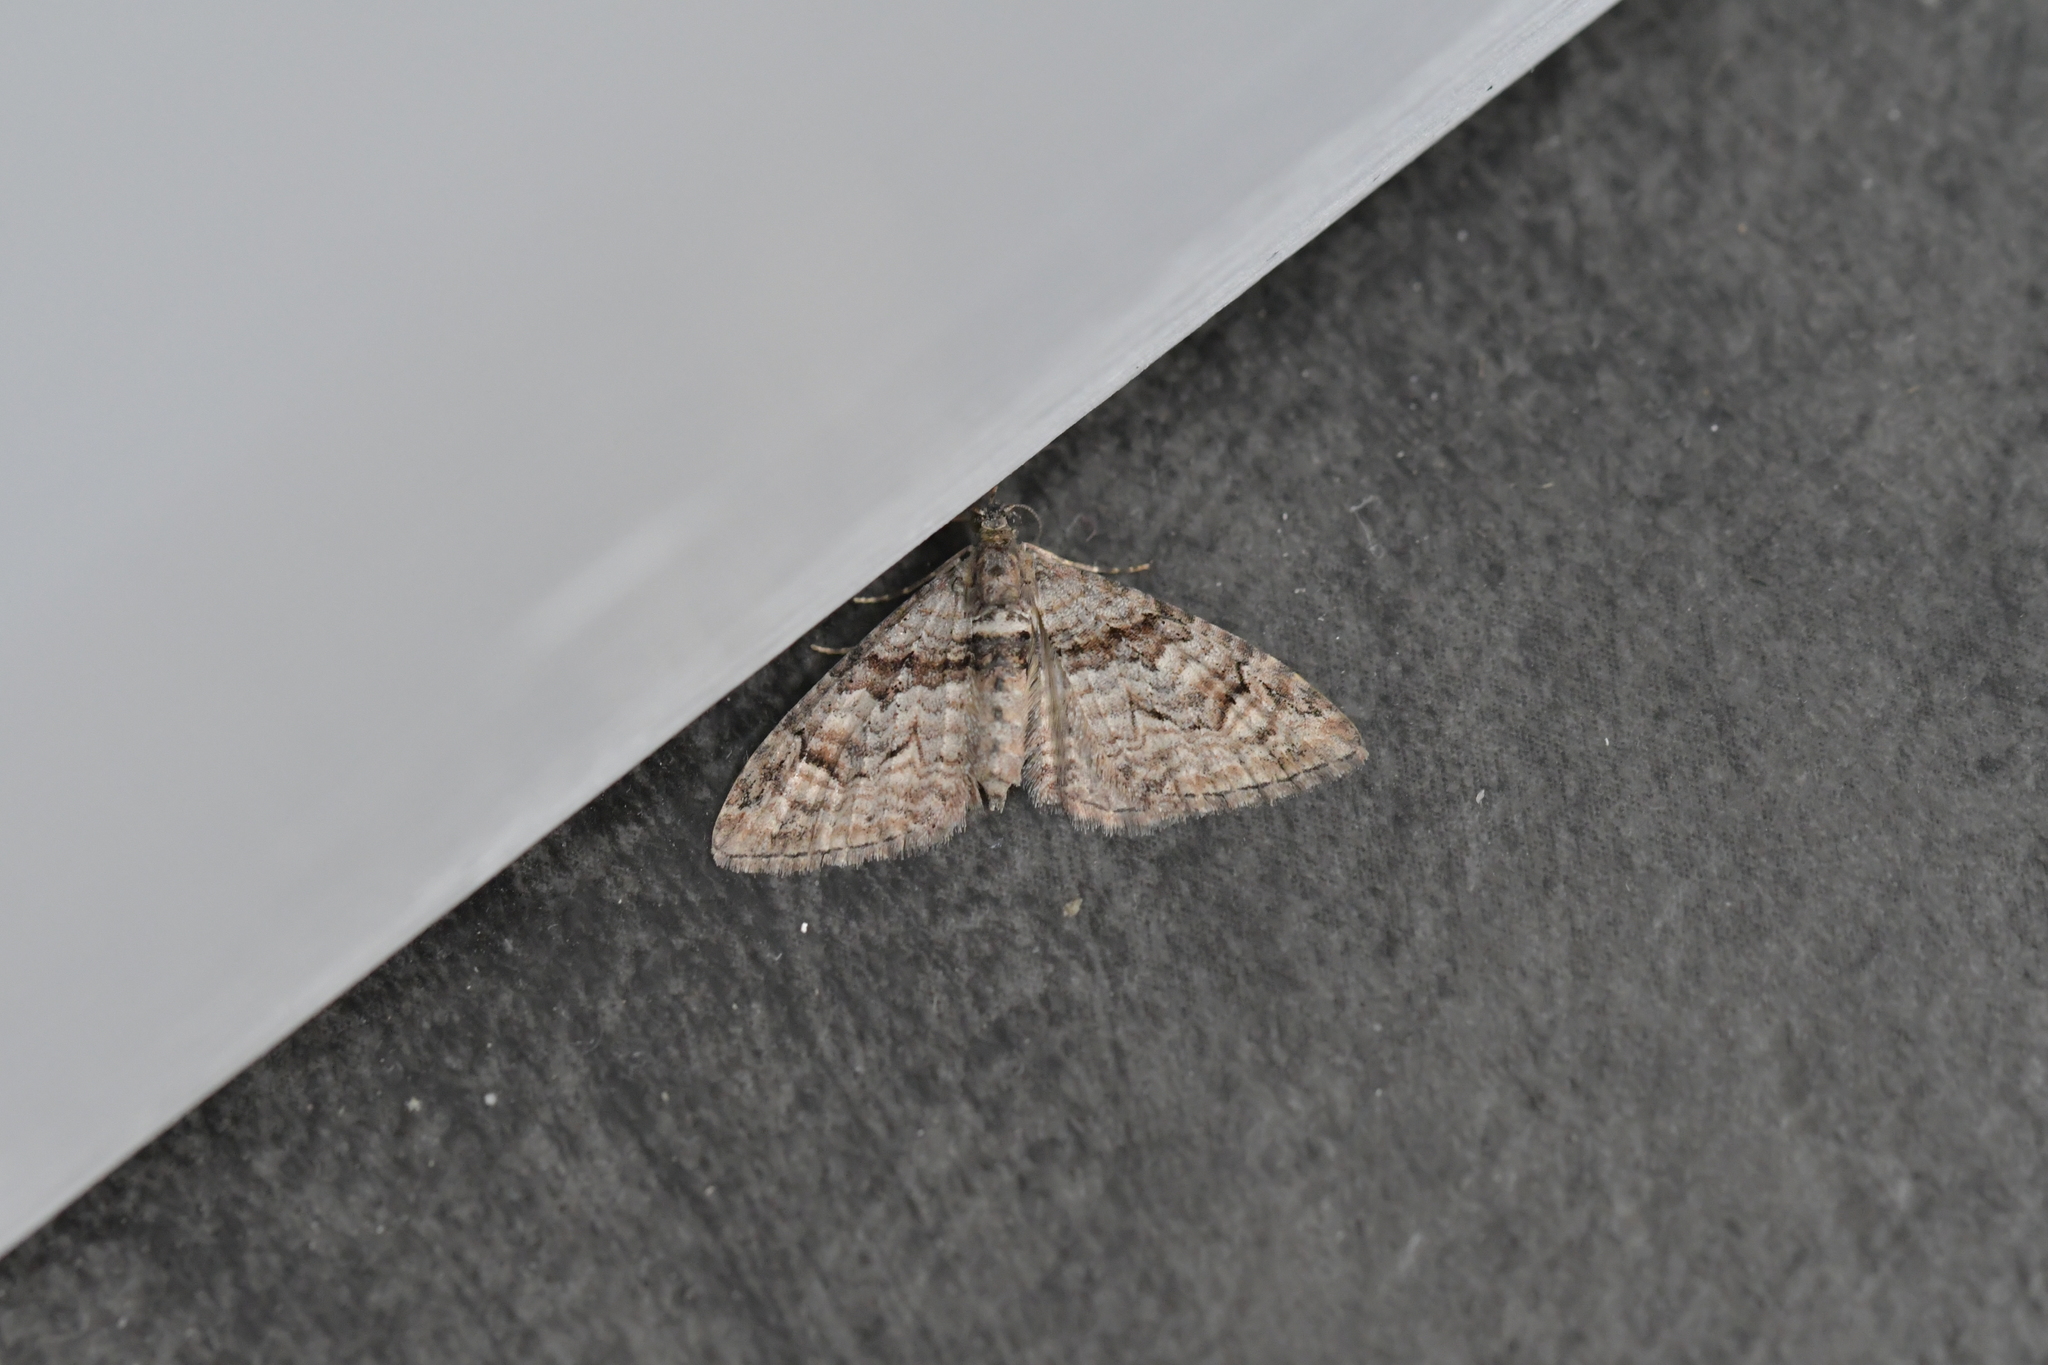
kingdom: Animalia
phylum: Arthropoda
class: Insecta
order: Lepidoptera
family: Geometridae
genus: Phrissogonus
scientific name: Phrissogonus laticostata
